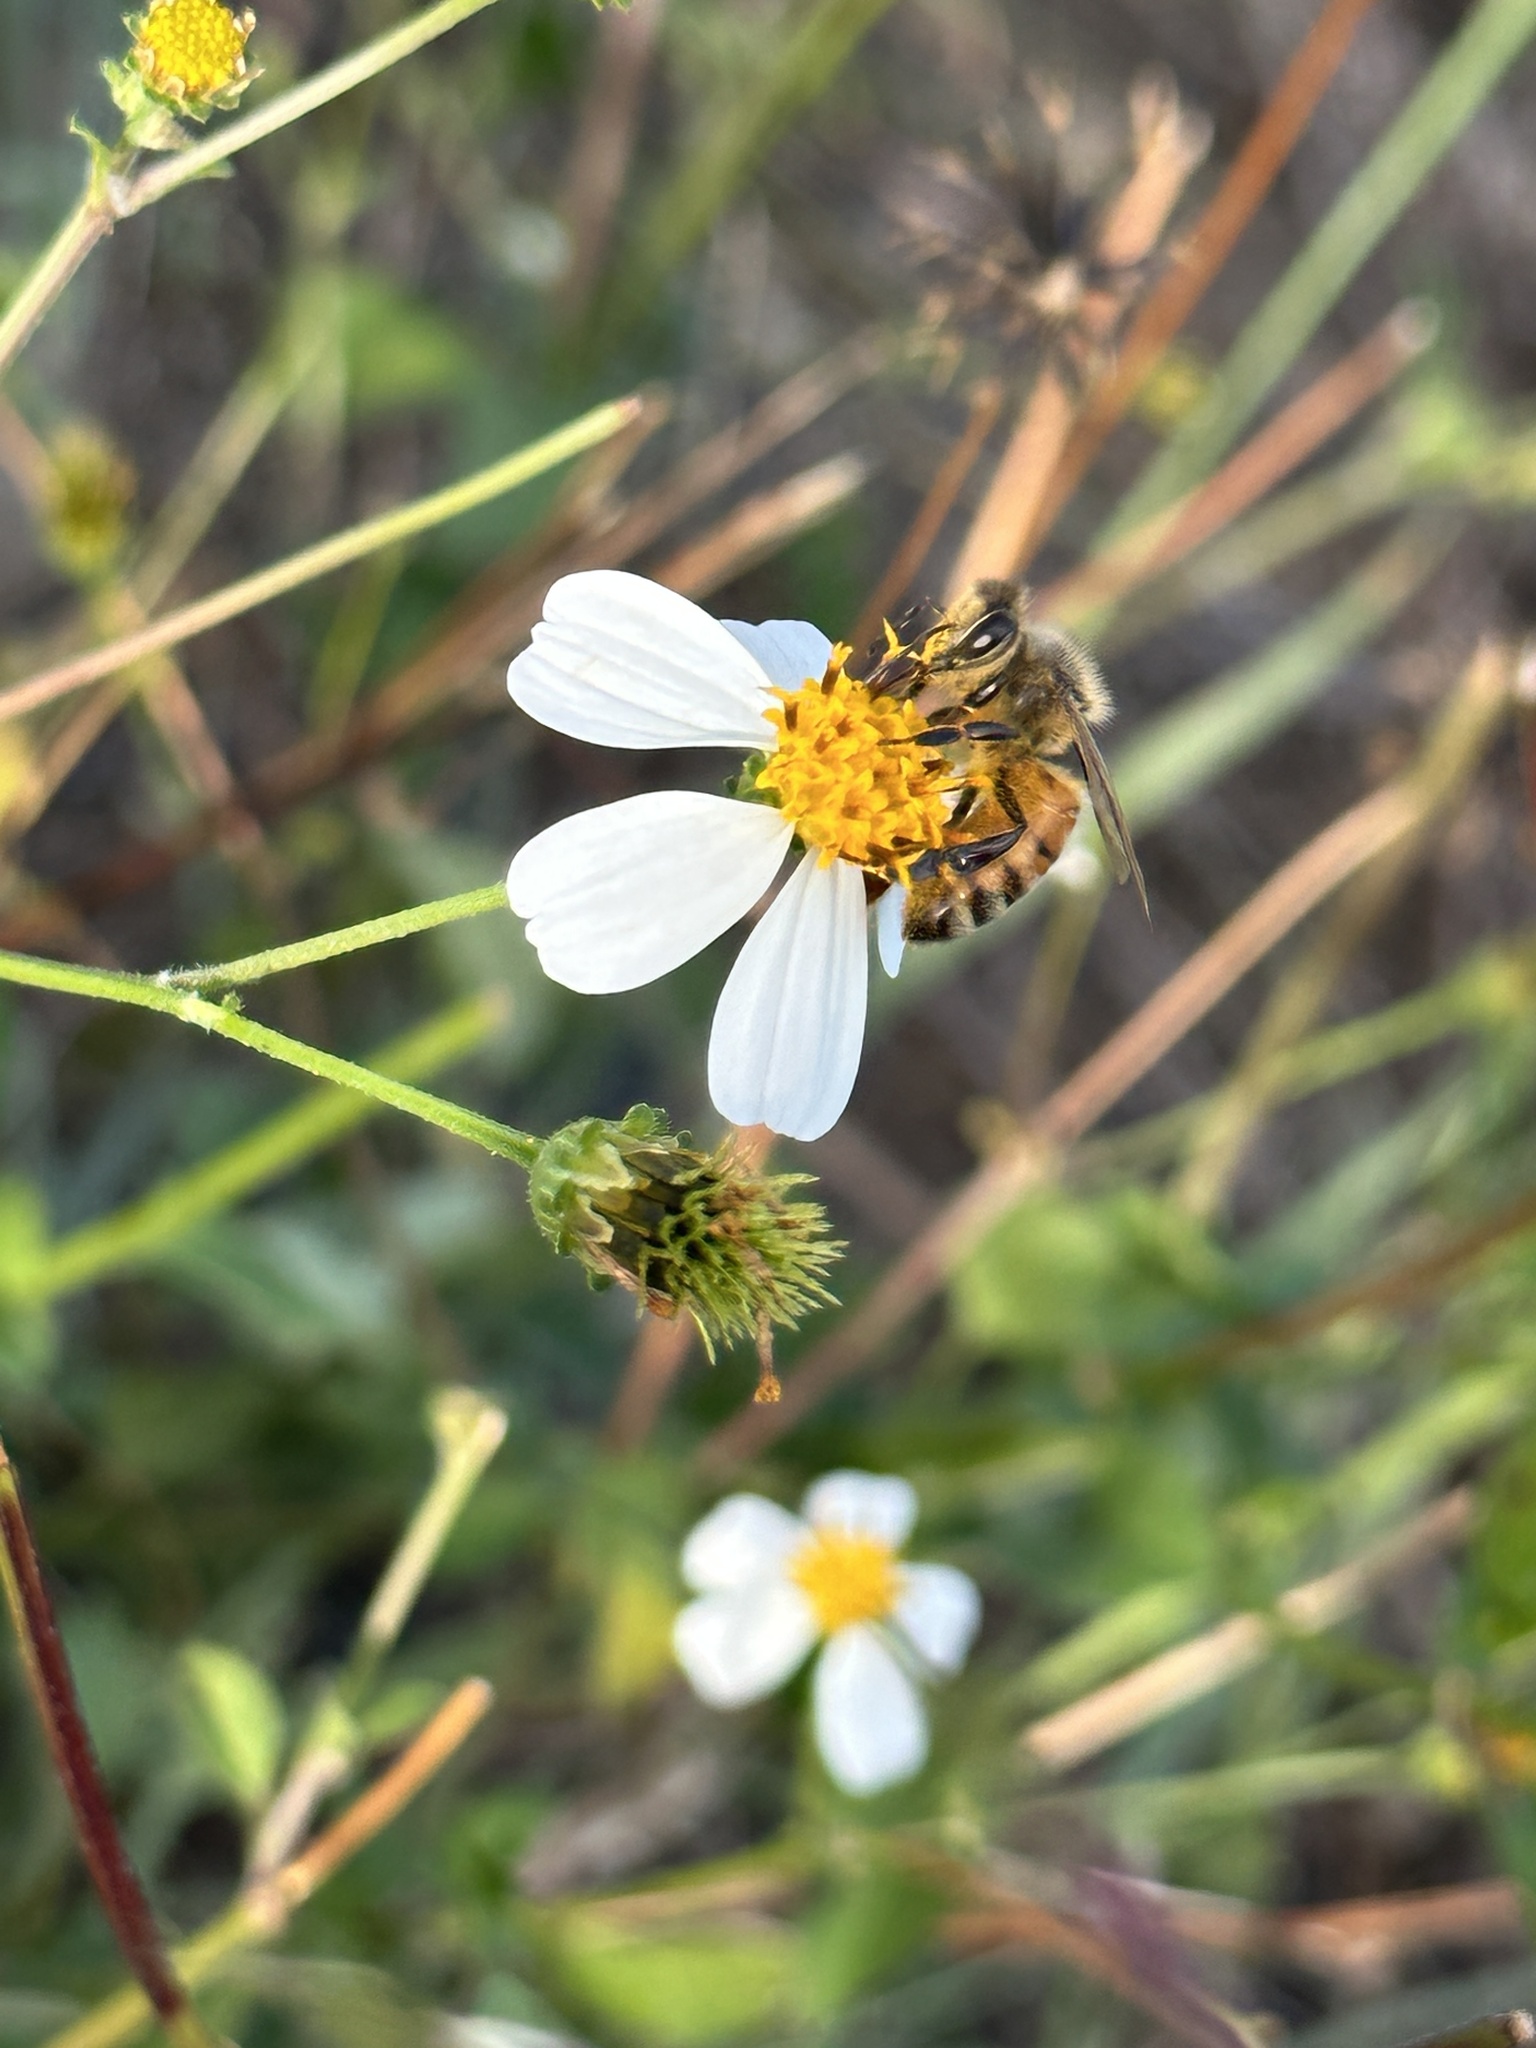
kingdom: Animalia
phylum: Arthropoda
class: Insecta
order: Hymenoptera
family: Apidae
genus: Apis
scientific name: Apis mellifera
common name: Honey bee
